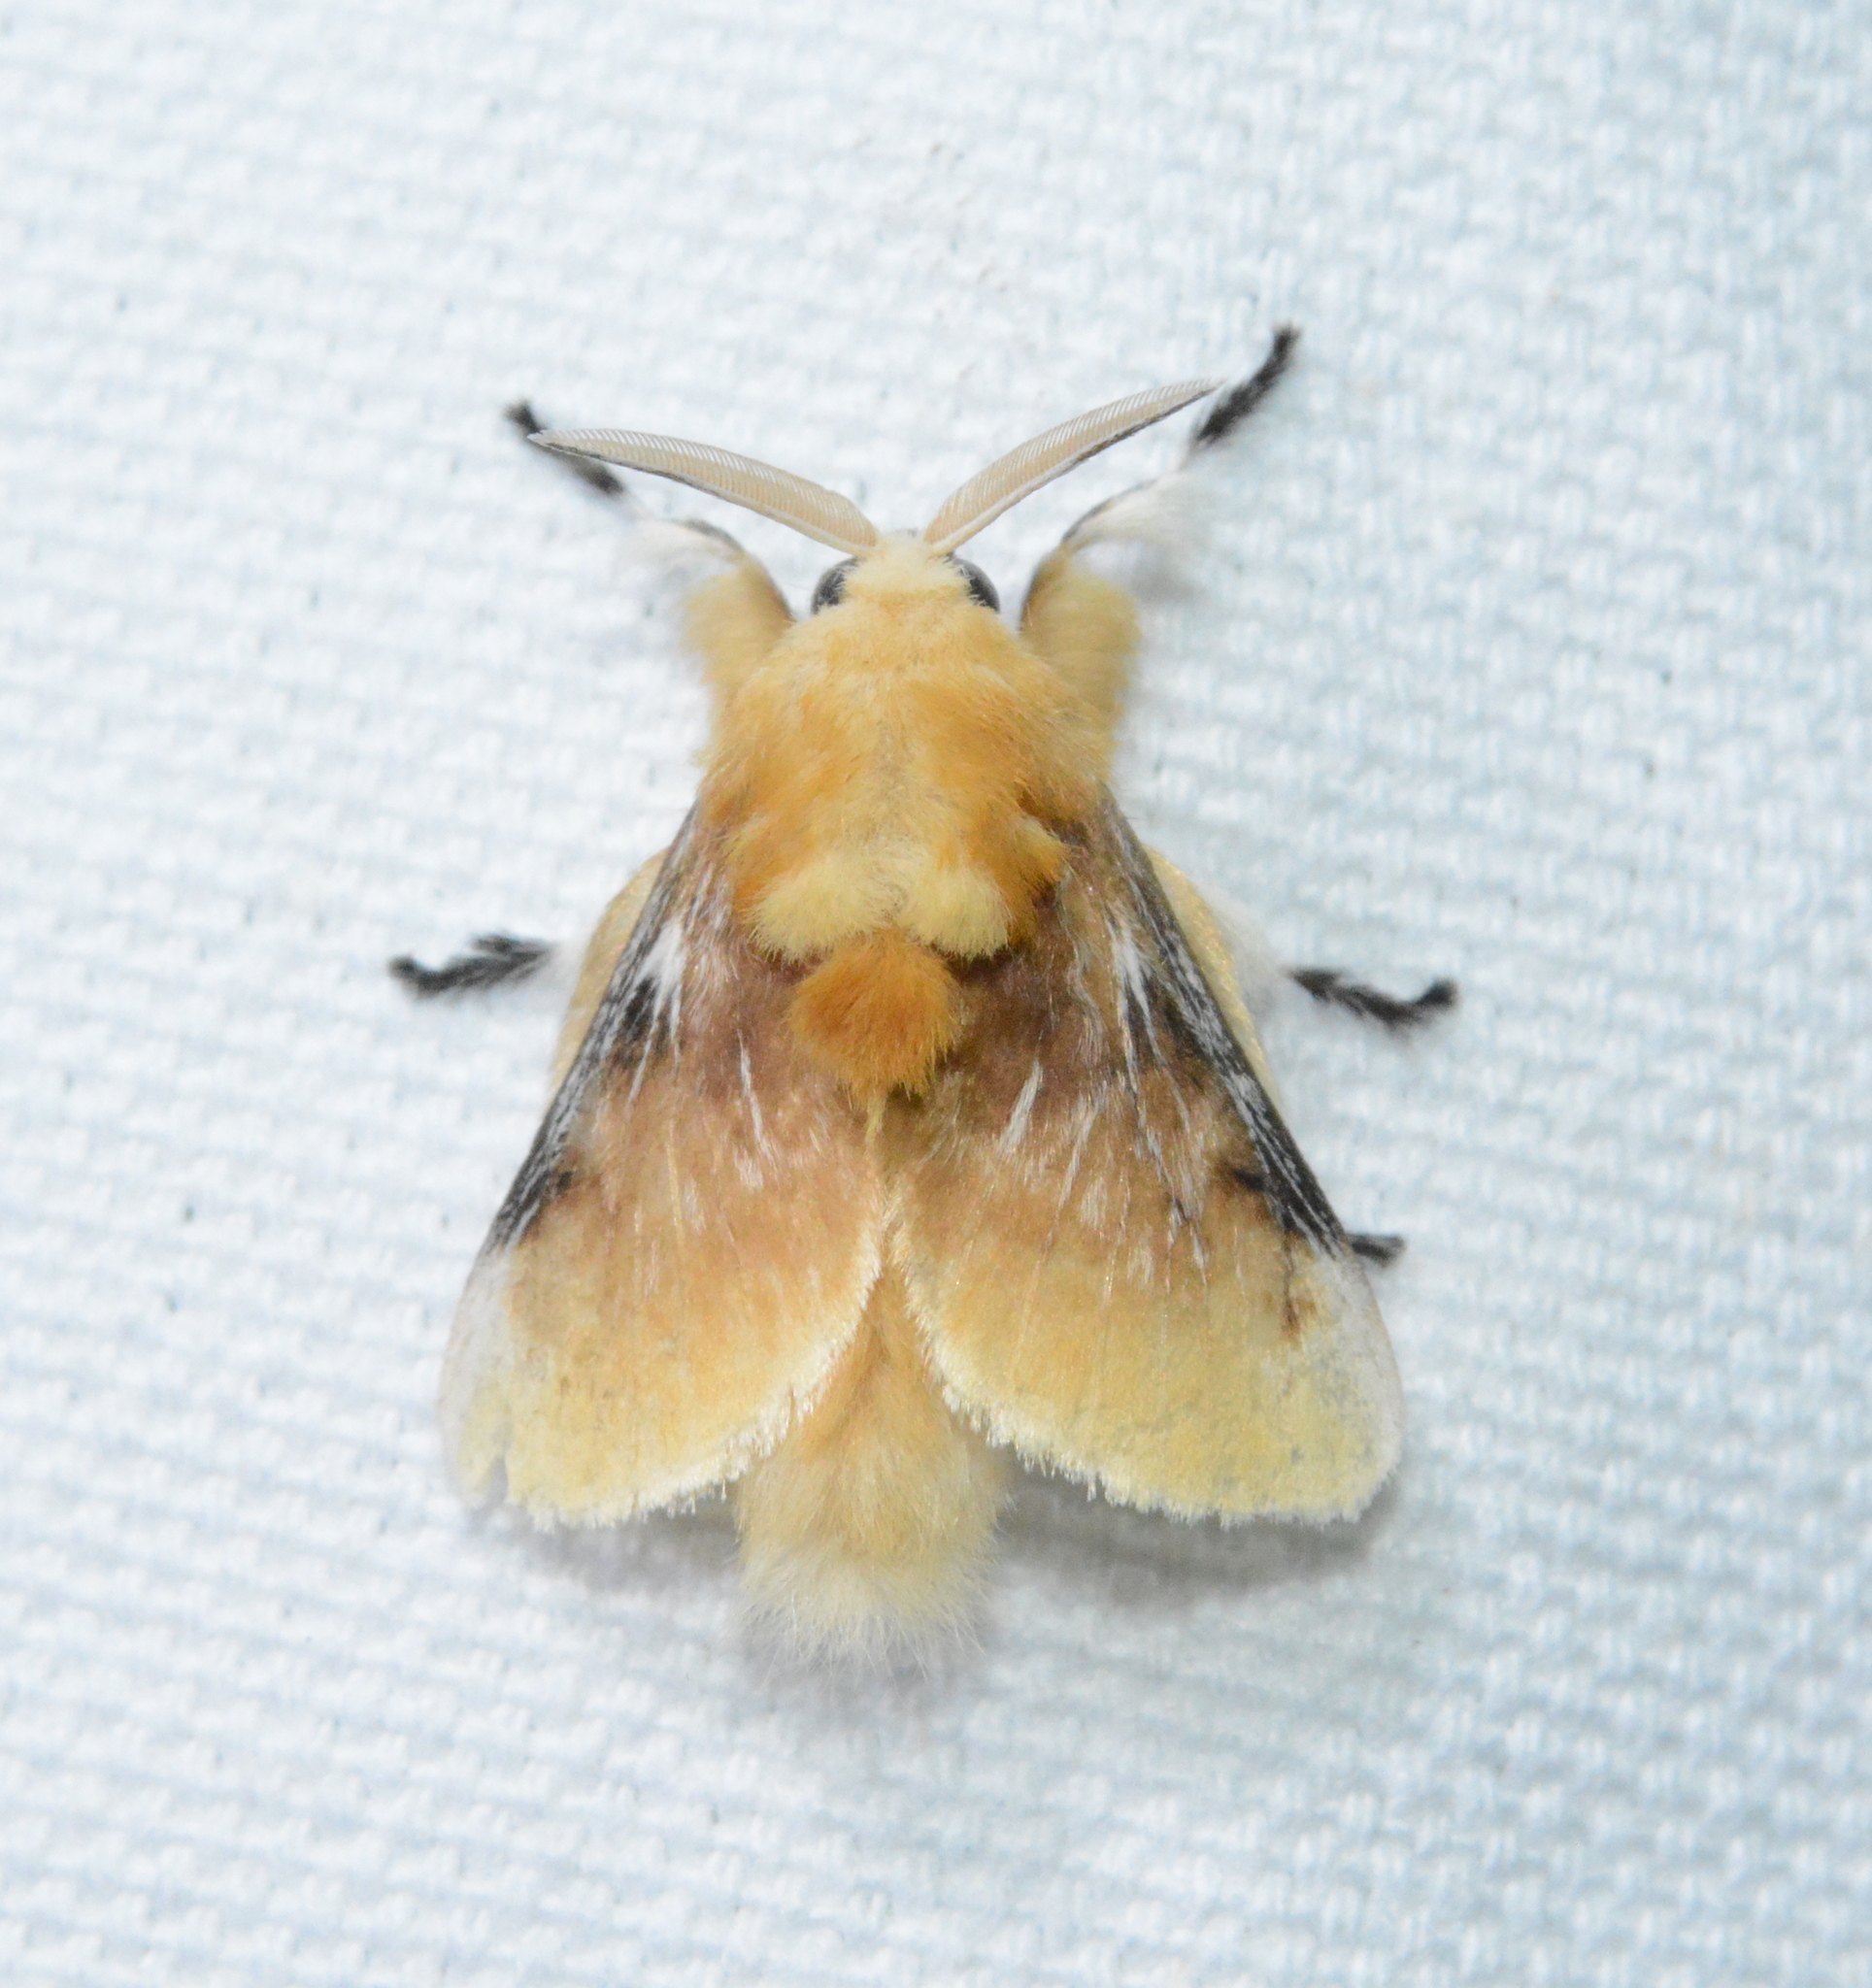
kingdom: Animalia
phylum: Arthropoda
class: Insecta
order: Lepidoptera
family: Megalopygidae
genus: Megalopyge
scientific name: Megalopyge opercularis
